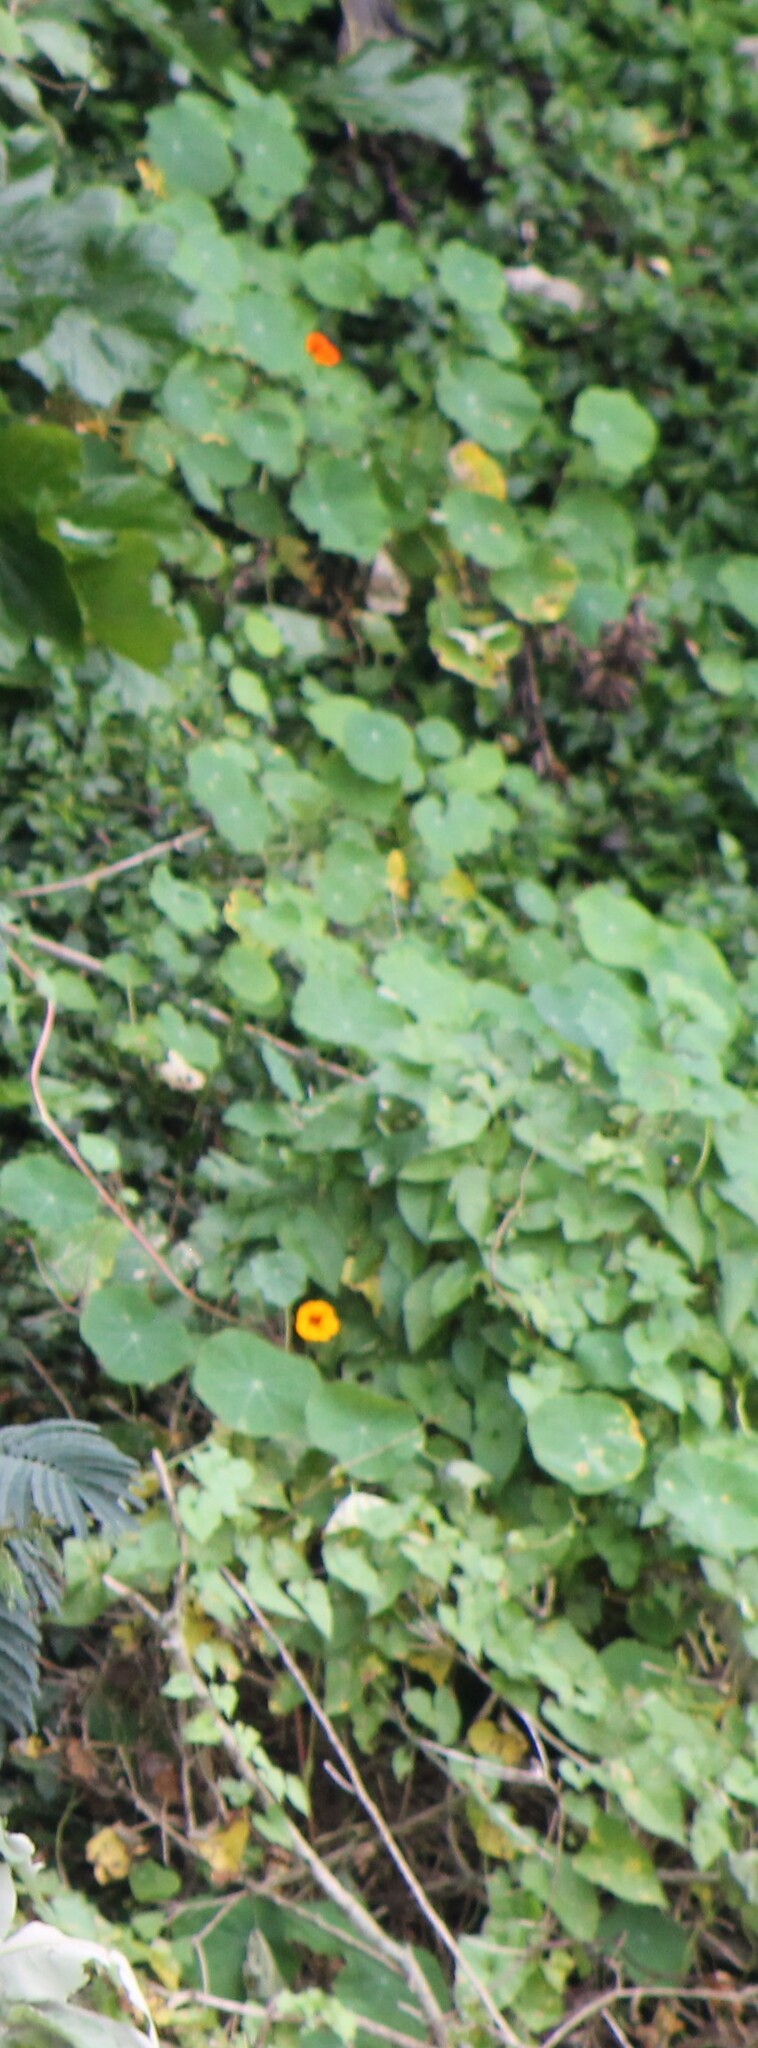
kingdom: Plantae
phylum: Tracheophyta
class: Magnoliopsida
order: Brassicales
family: Tropaeolaceae
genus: Tropaeolum
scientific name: Tropaeolum majus
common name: Nasturtium
